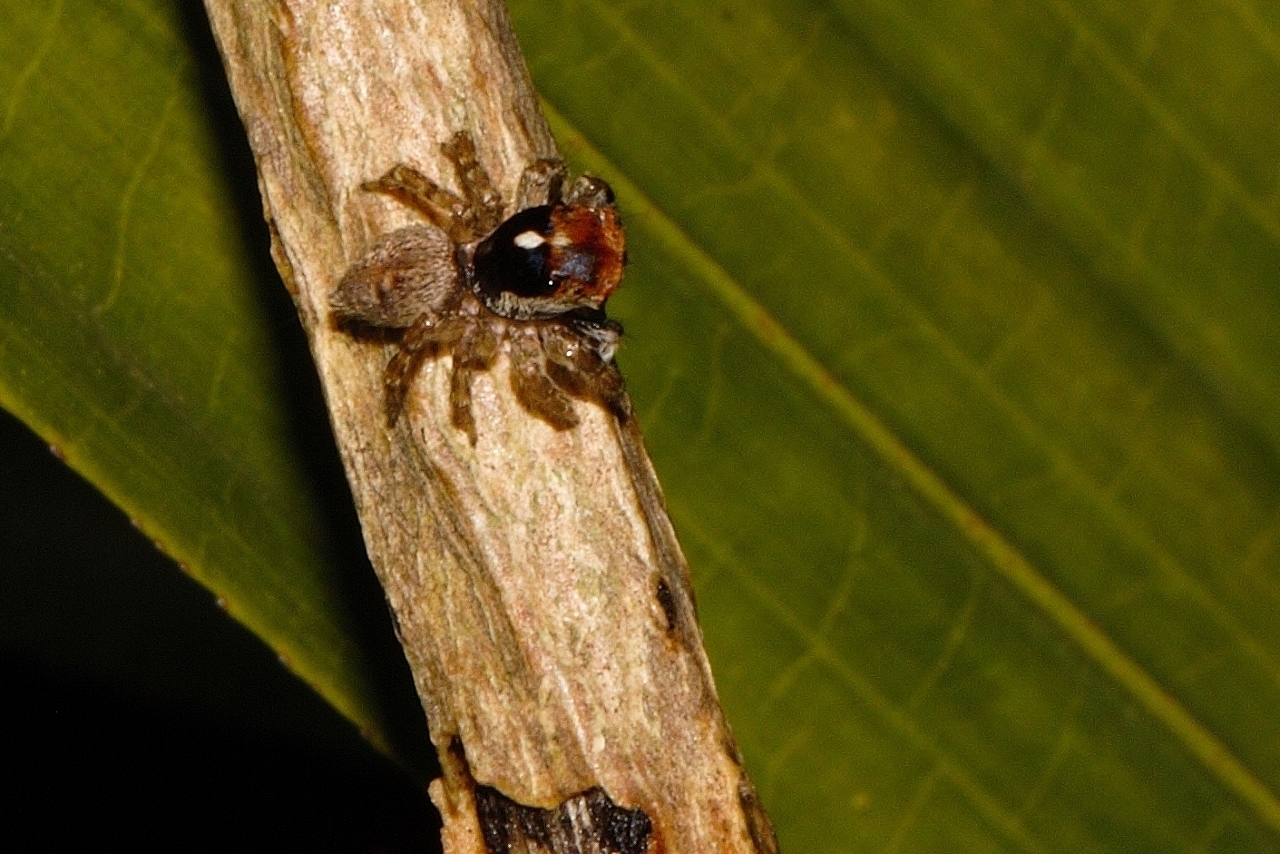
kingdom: Animalia
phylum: Arthropoda
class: Arachnida
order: Araneae
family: Salticidae
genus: Thyenula
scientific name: Thyenula munda
